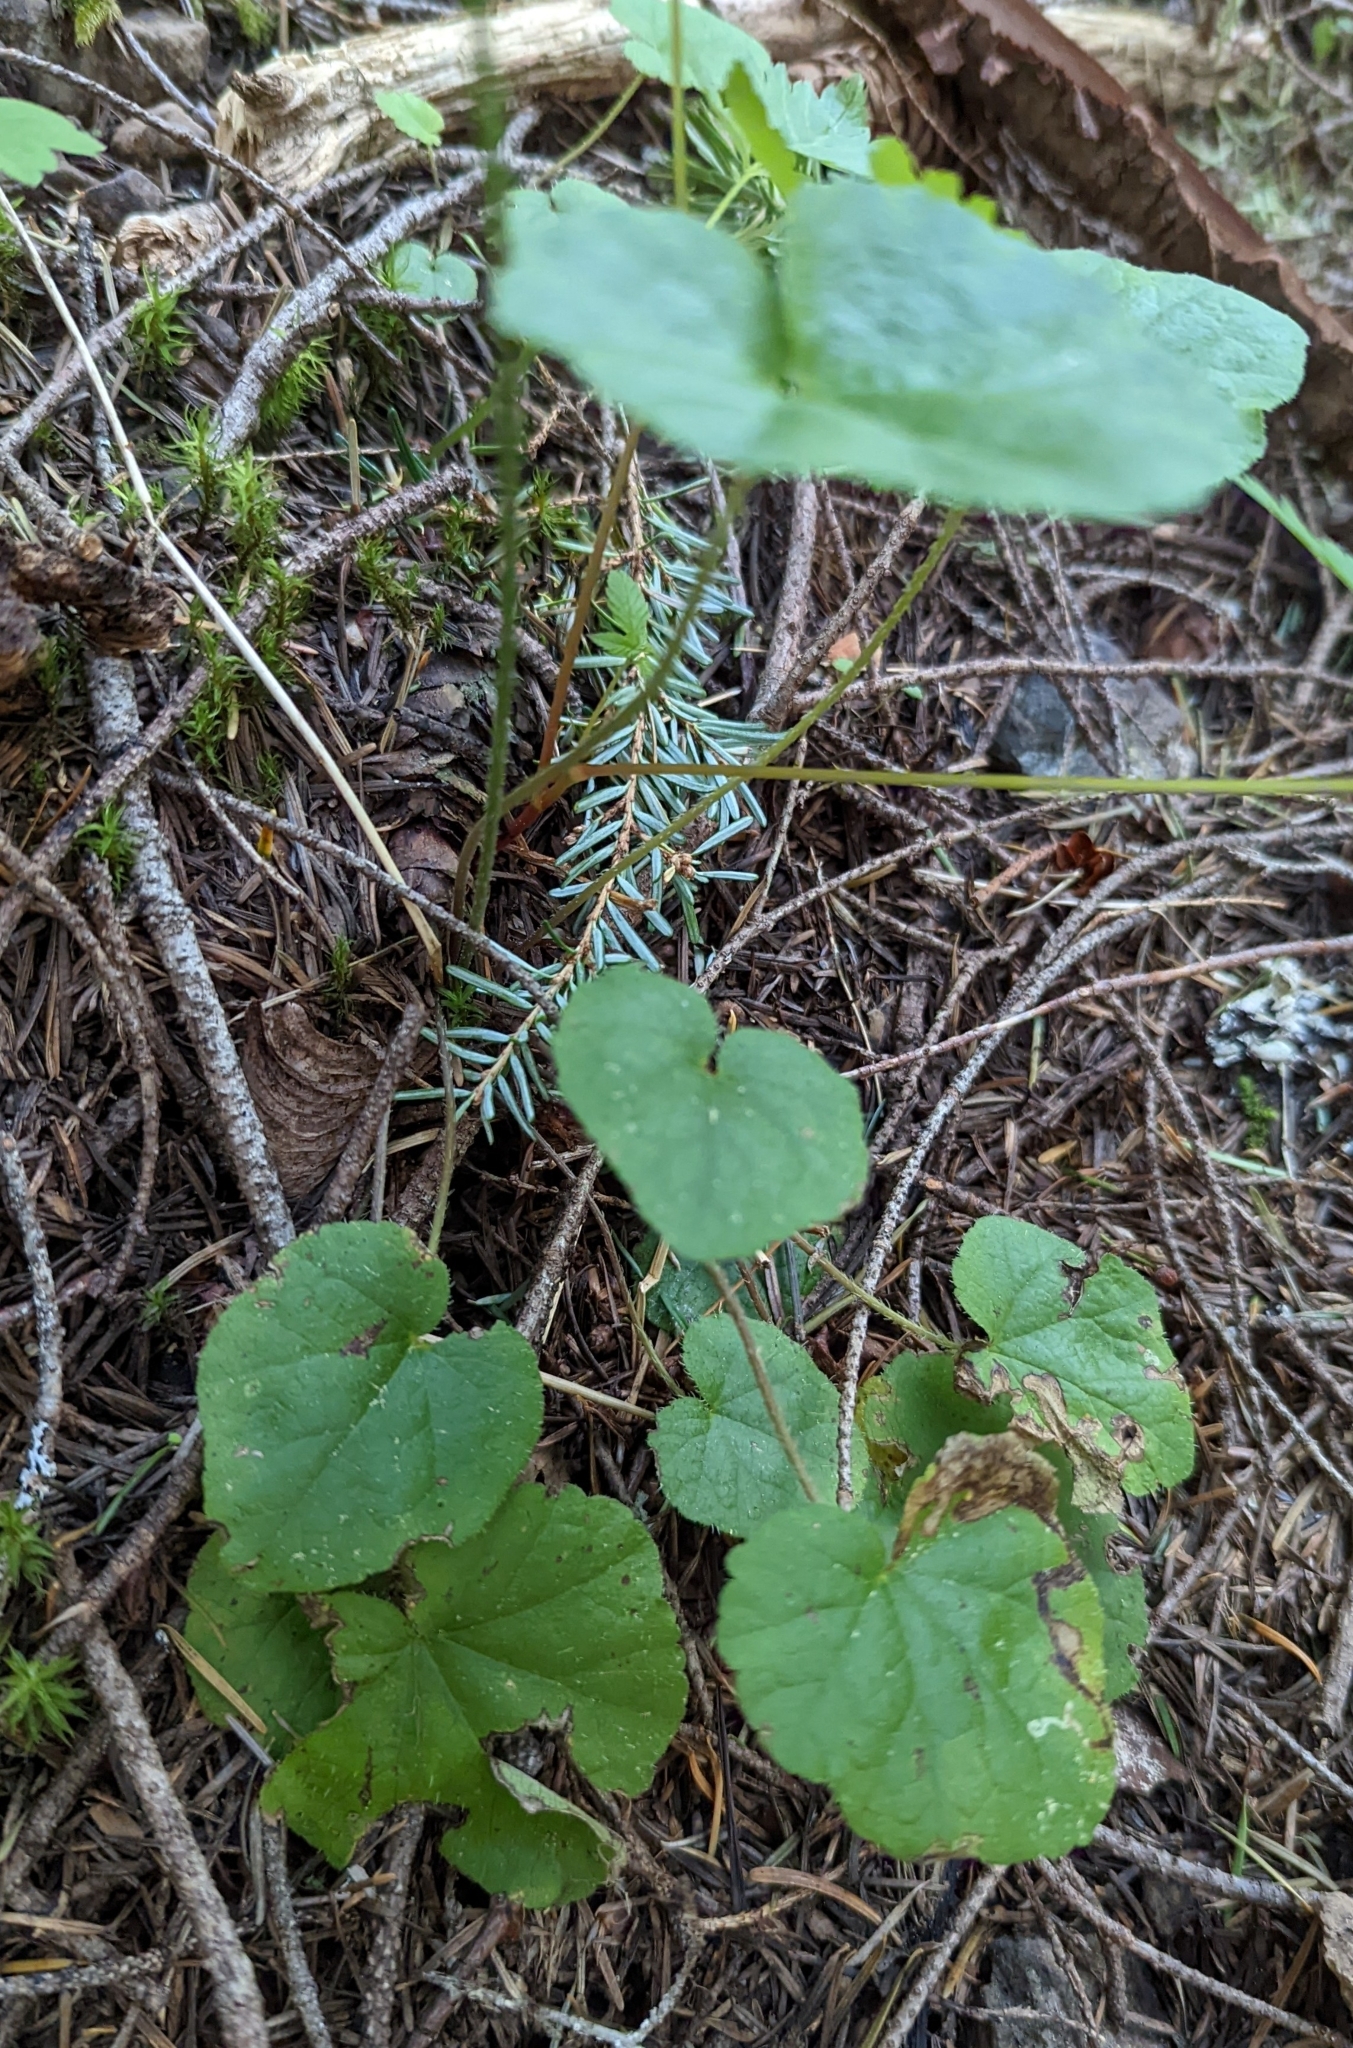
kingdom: Plantae
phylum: Tracheophyta
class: Magnoliopsida
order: Saxifragales
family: Saxifragaceae
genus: Ozomelis
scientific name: Ozomelis trifida
